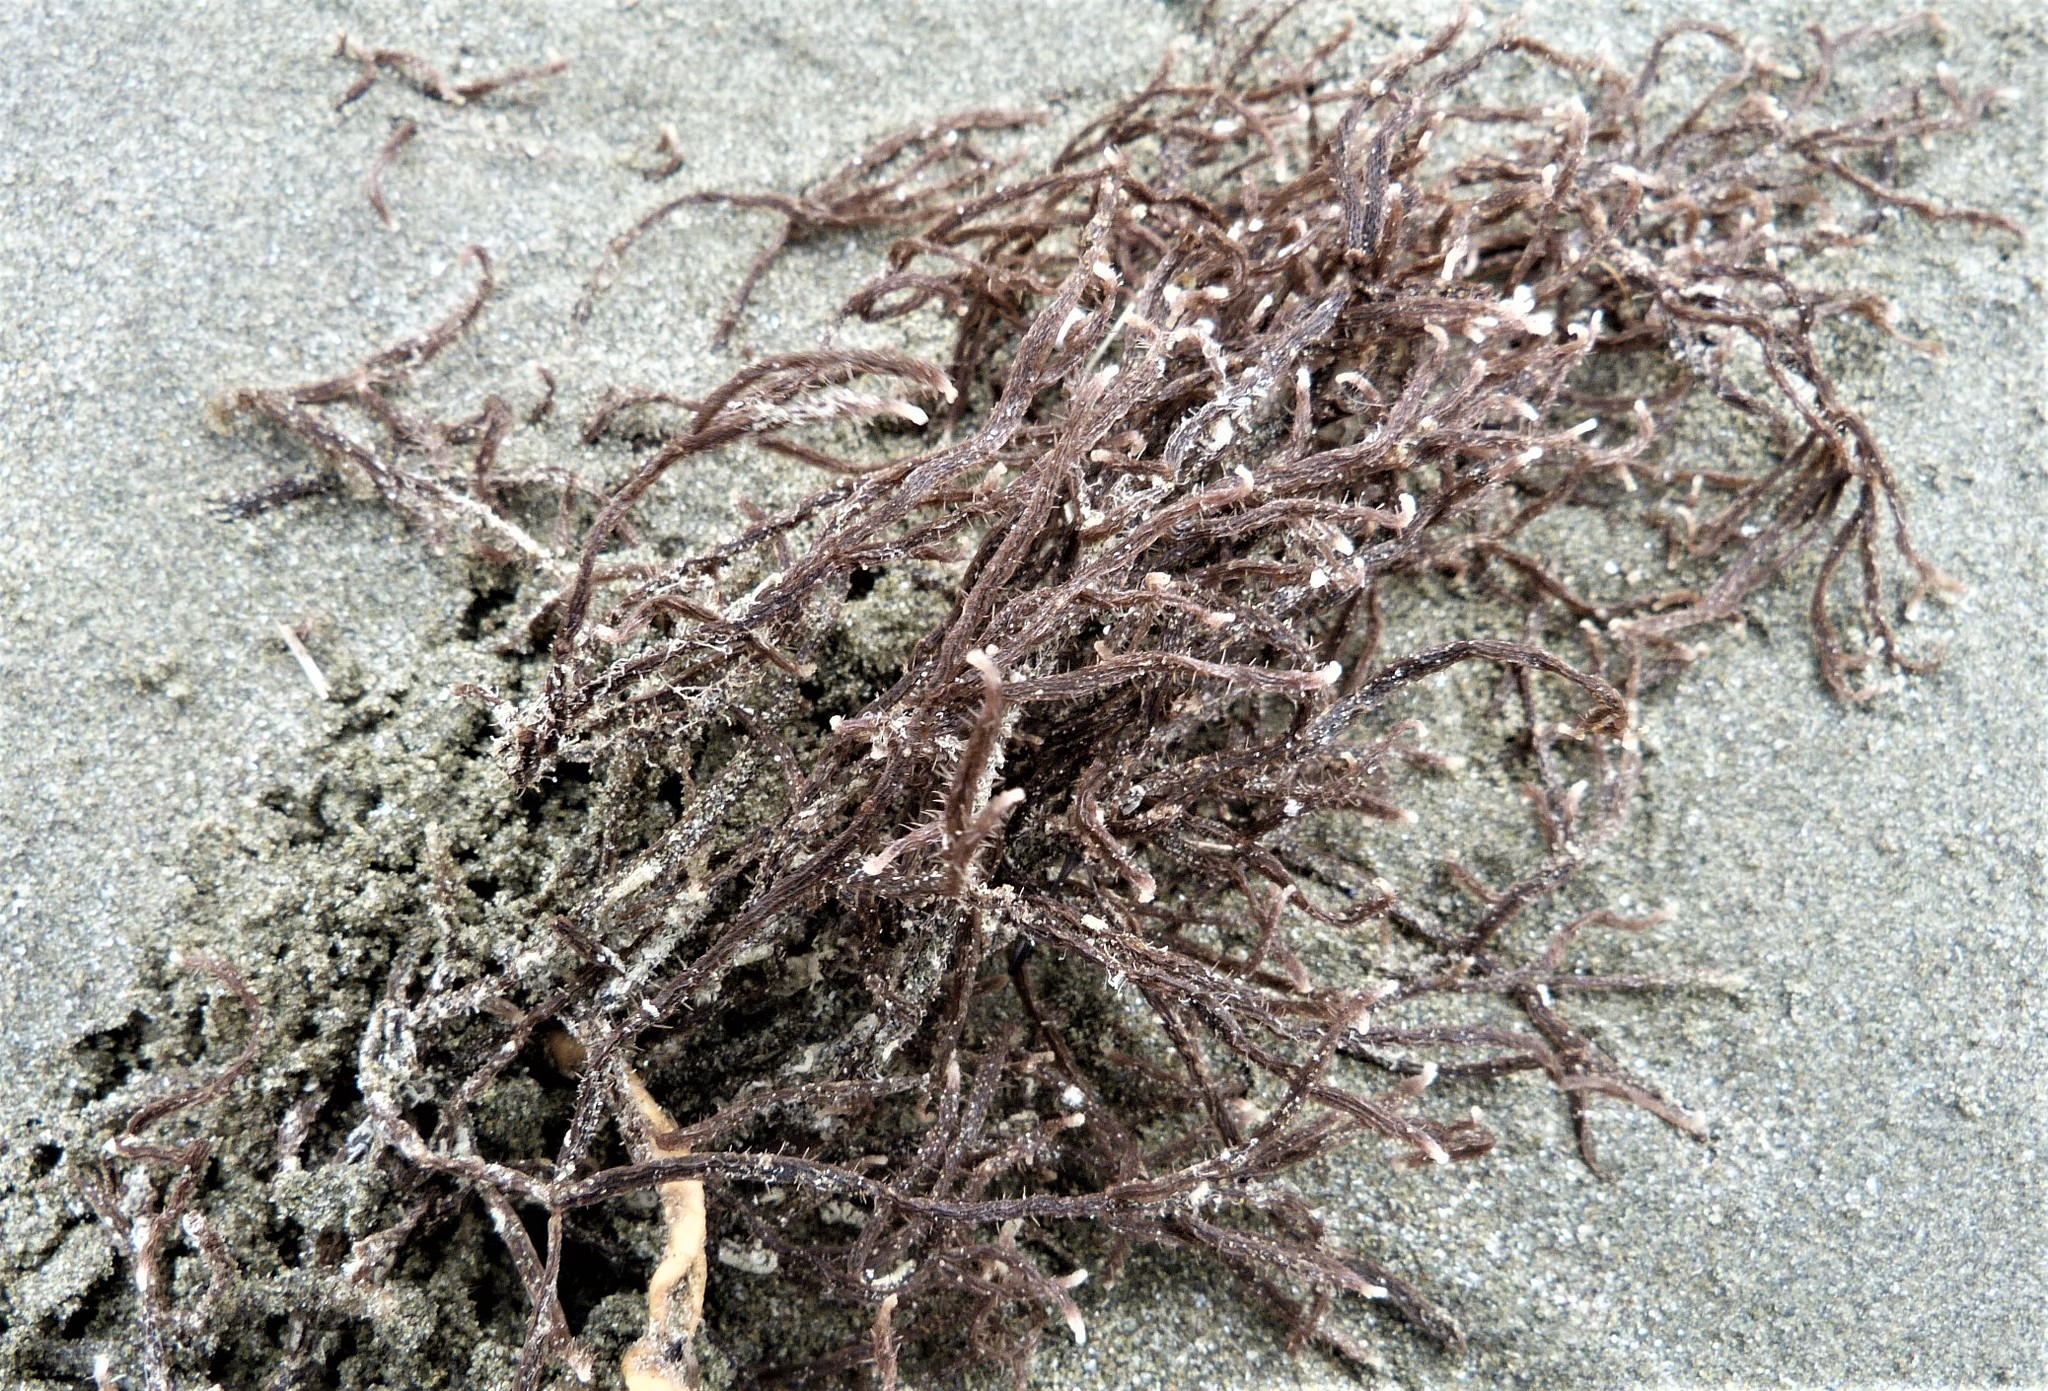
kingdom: Animalia
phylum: Bryozoa
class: Gymnolaemata
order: Ctenostomatida
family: Flustrellidridae
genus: Elzerina
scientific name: Elzerina binderi
